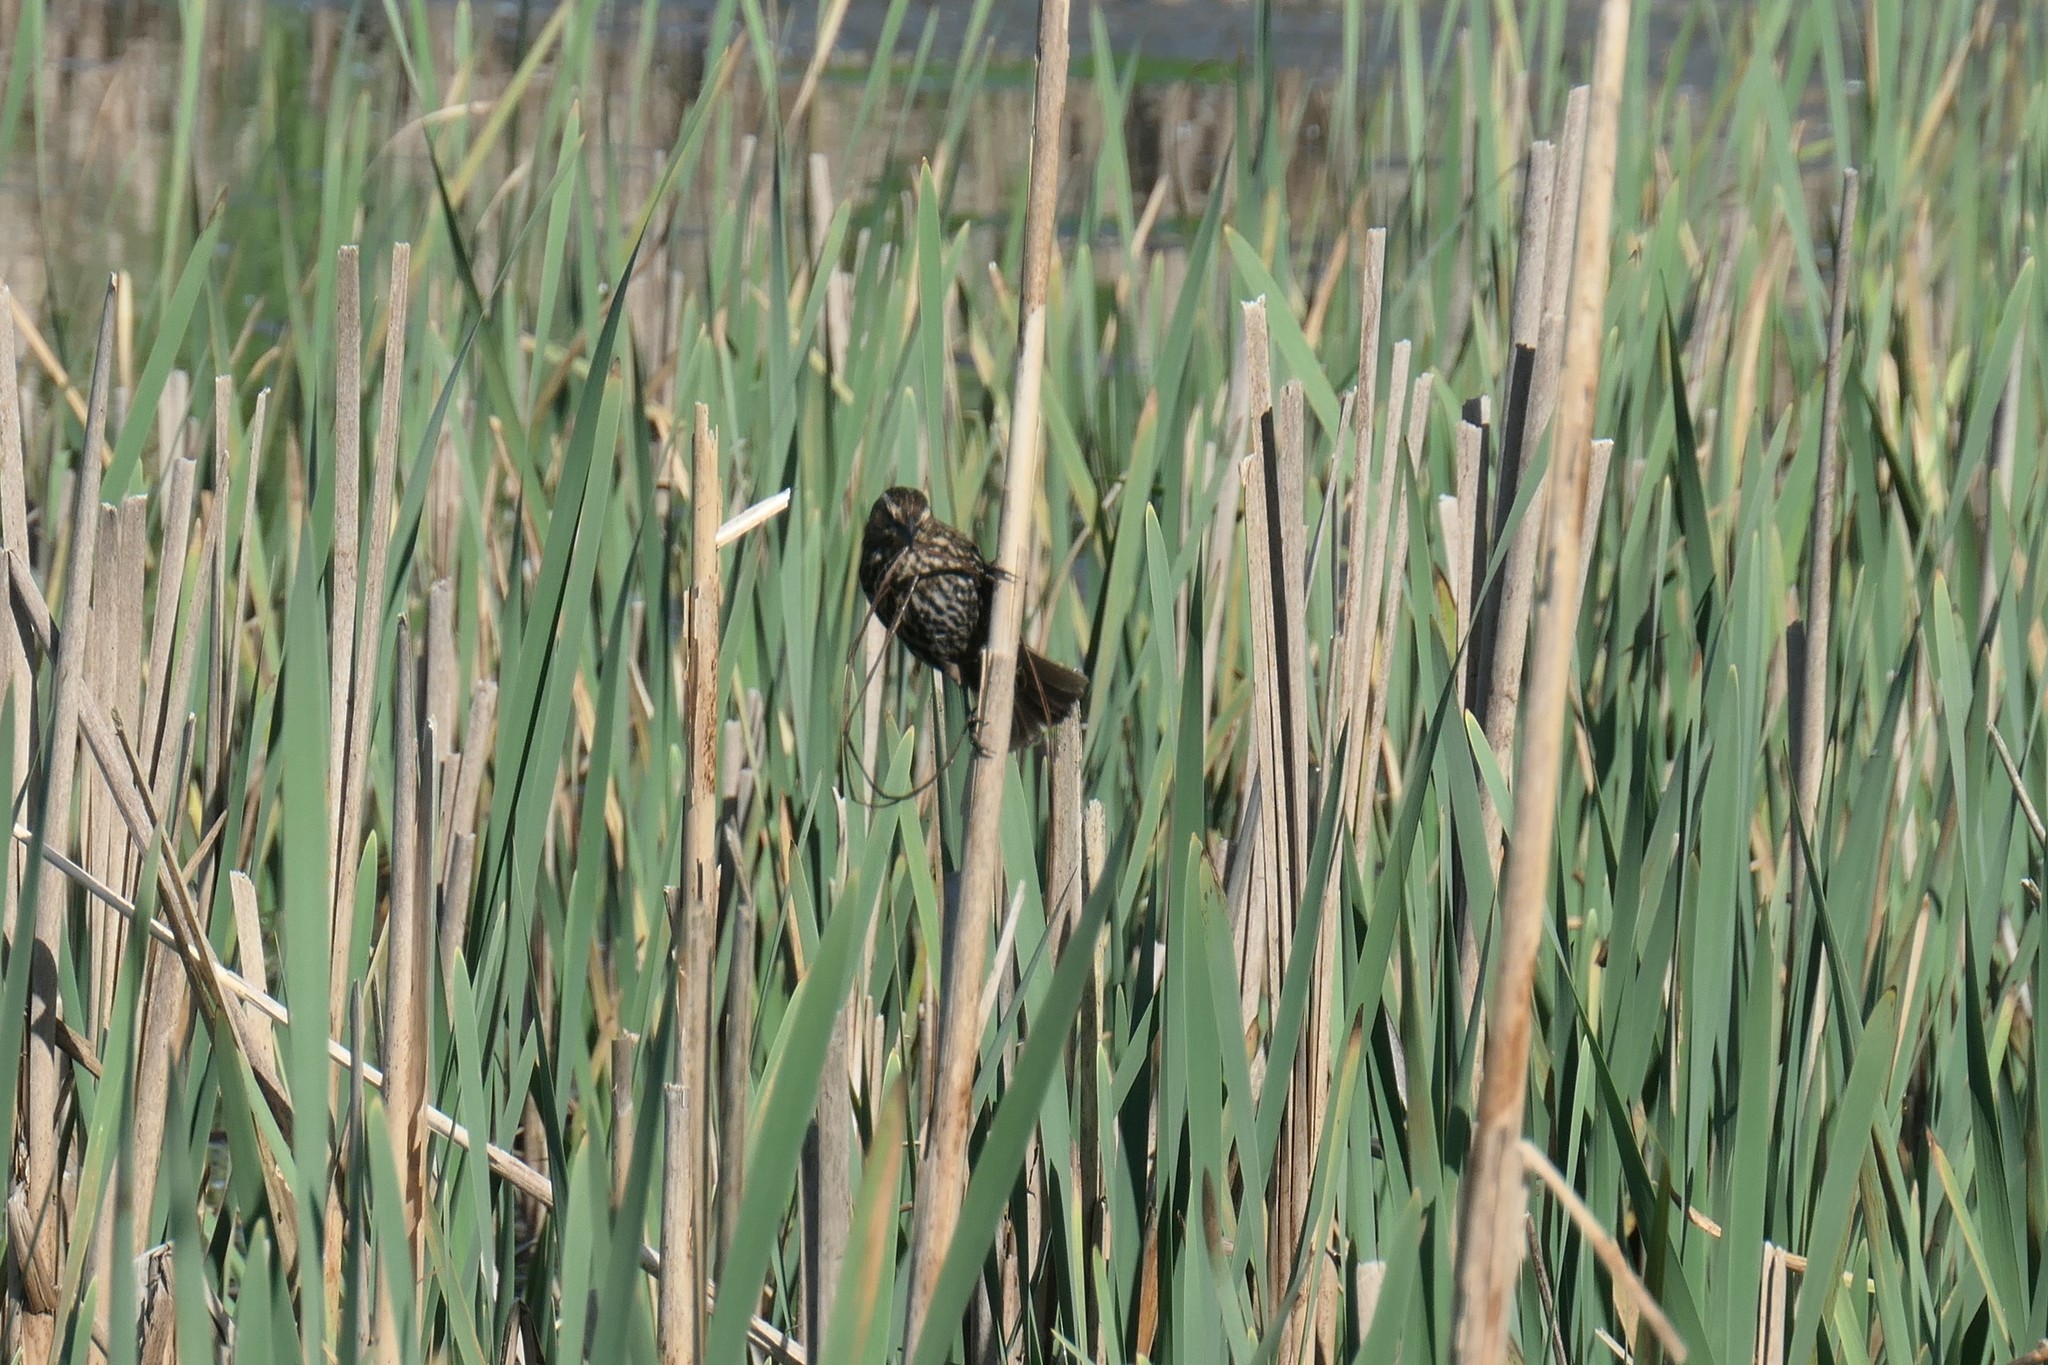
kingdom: Animalia
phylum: Chordata
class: Aves
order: Passeriformes
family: Icteridae
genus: Agelaius
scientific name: Agelaius phoeniceus
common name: Red-winged blackbird
